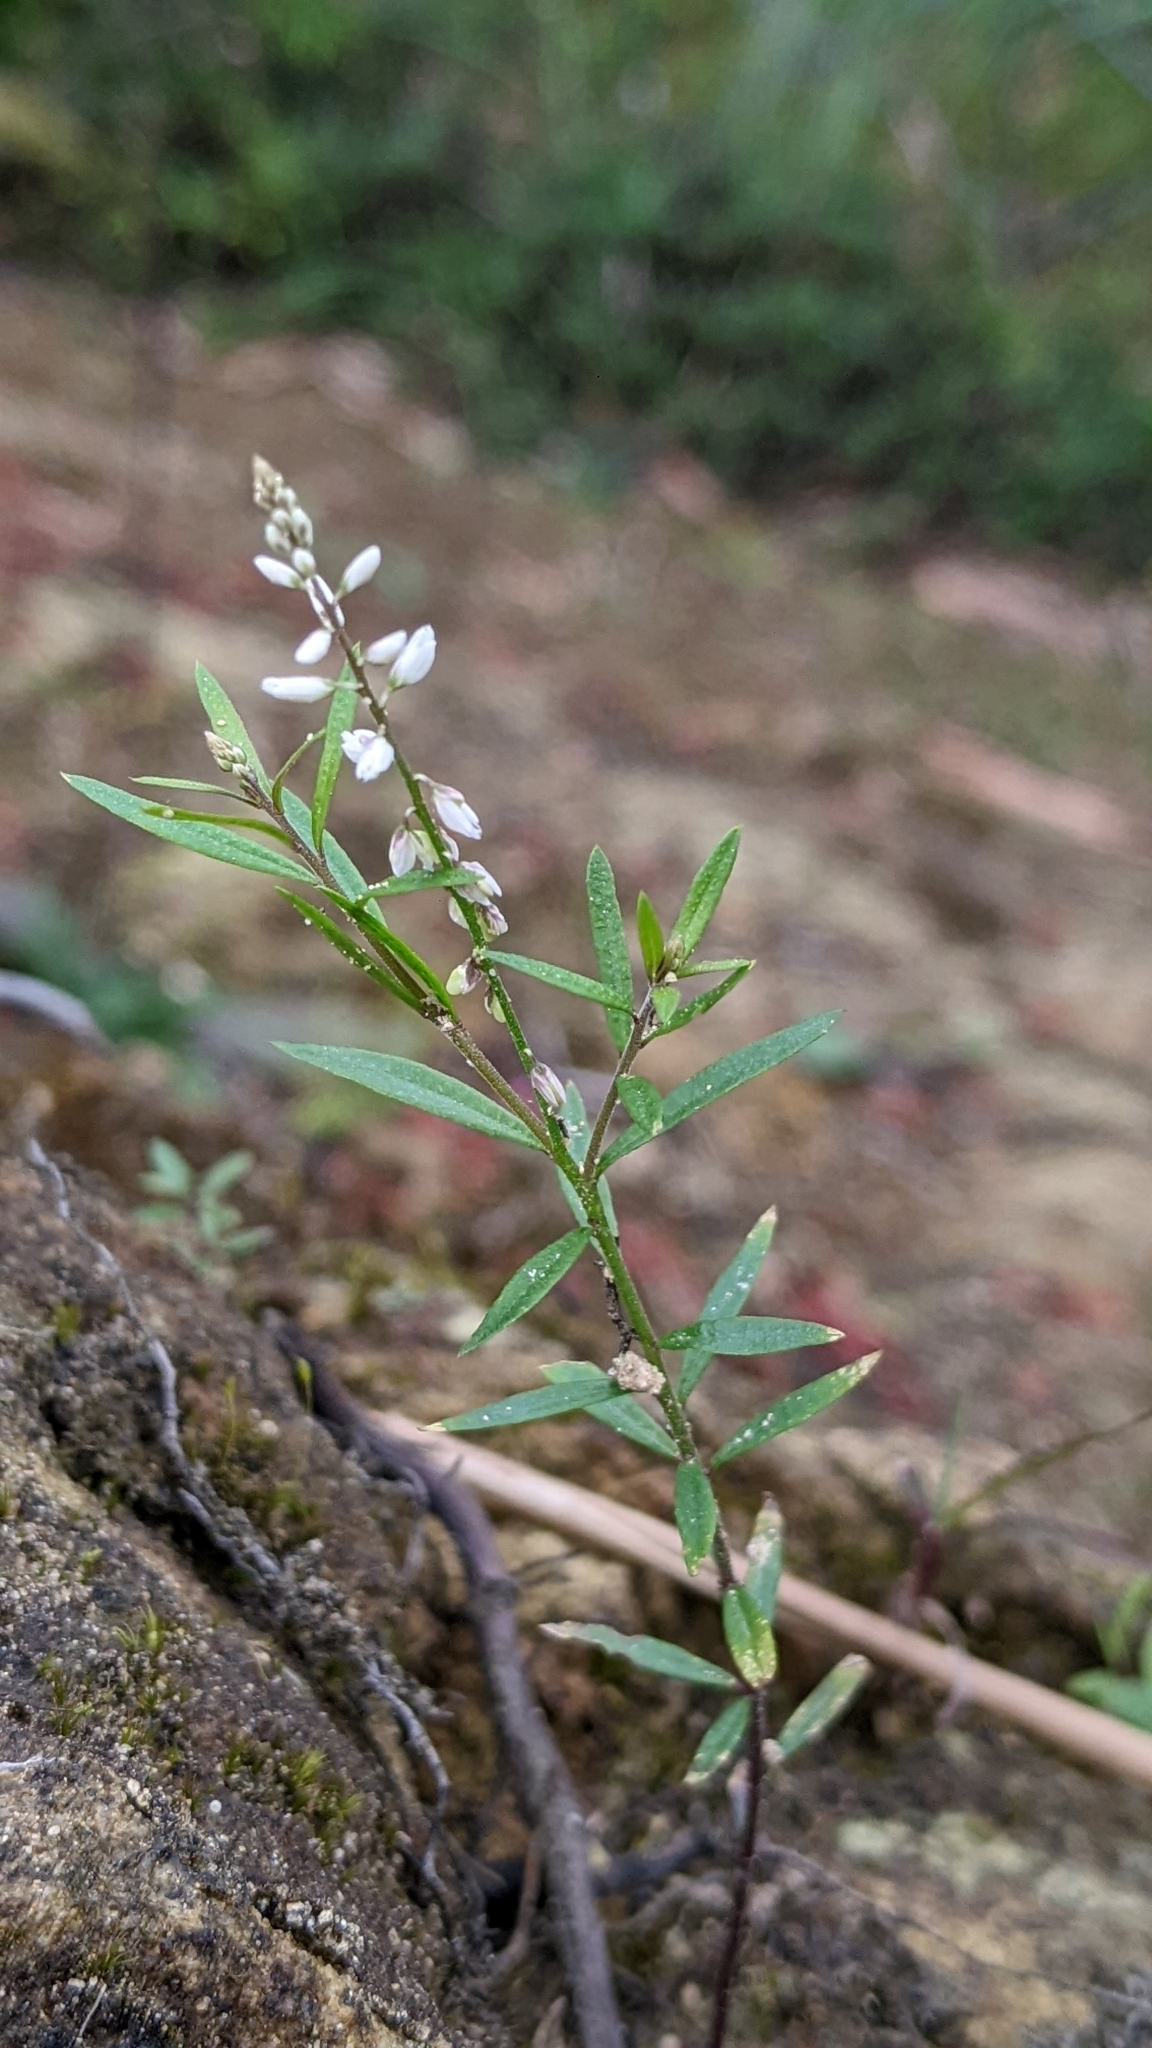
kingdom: Plantae
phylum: Tracheophyta
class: Magnoliopsida
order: Fabales
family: Polygalaceae
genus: Polygala
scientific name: Polygala paniculata
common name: Orosne
